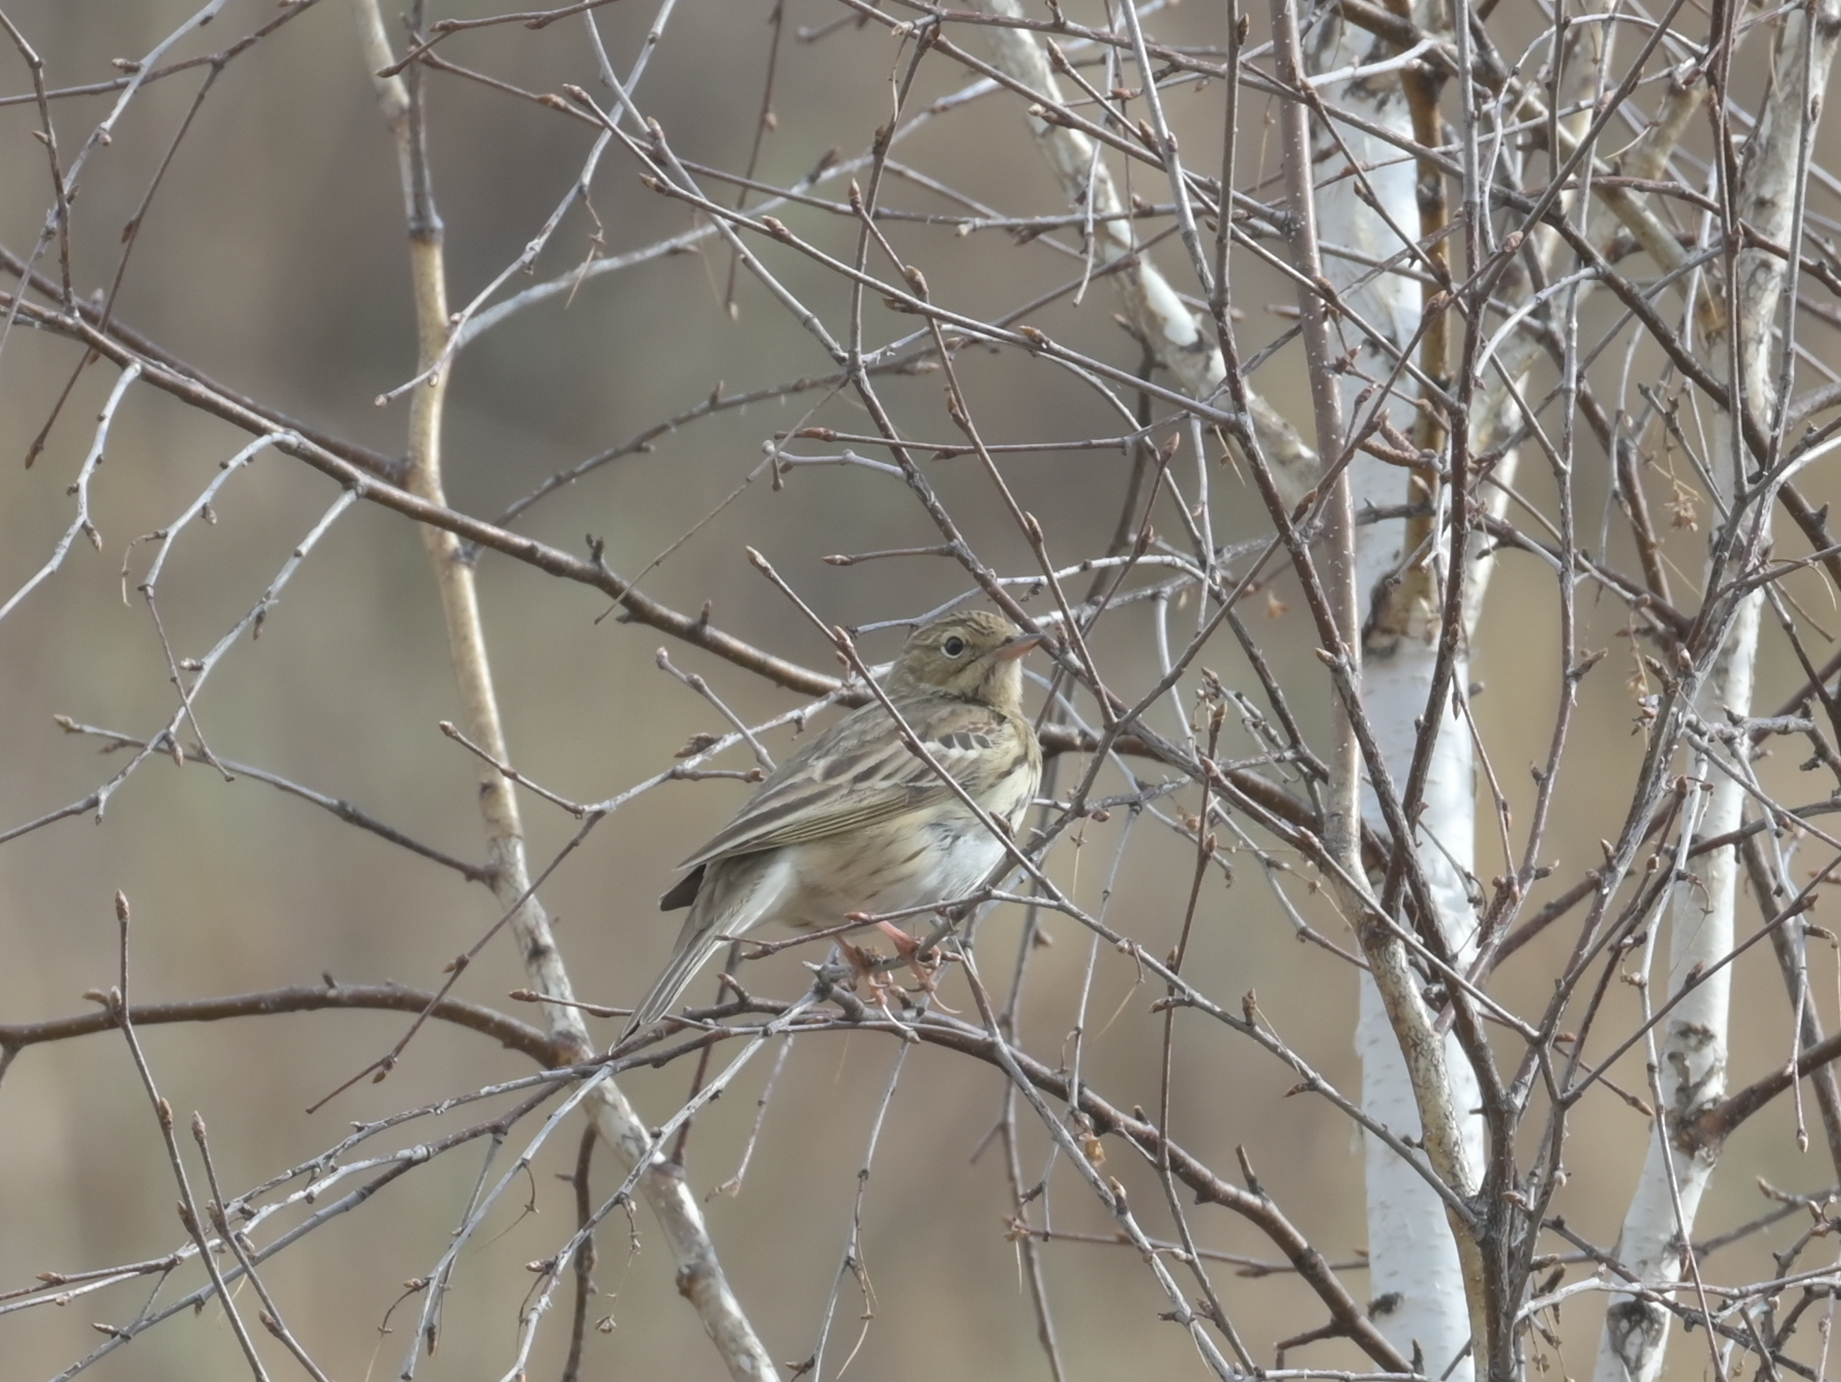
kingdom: Animalia
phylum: Chordata
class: Aves
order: Passeriformes
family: Motacillidae
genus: Anthus
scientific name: Anthus trivialis
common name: Tree pipit
